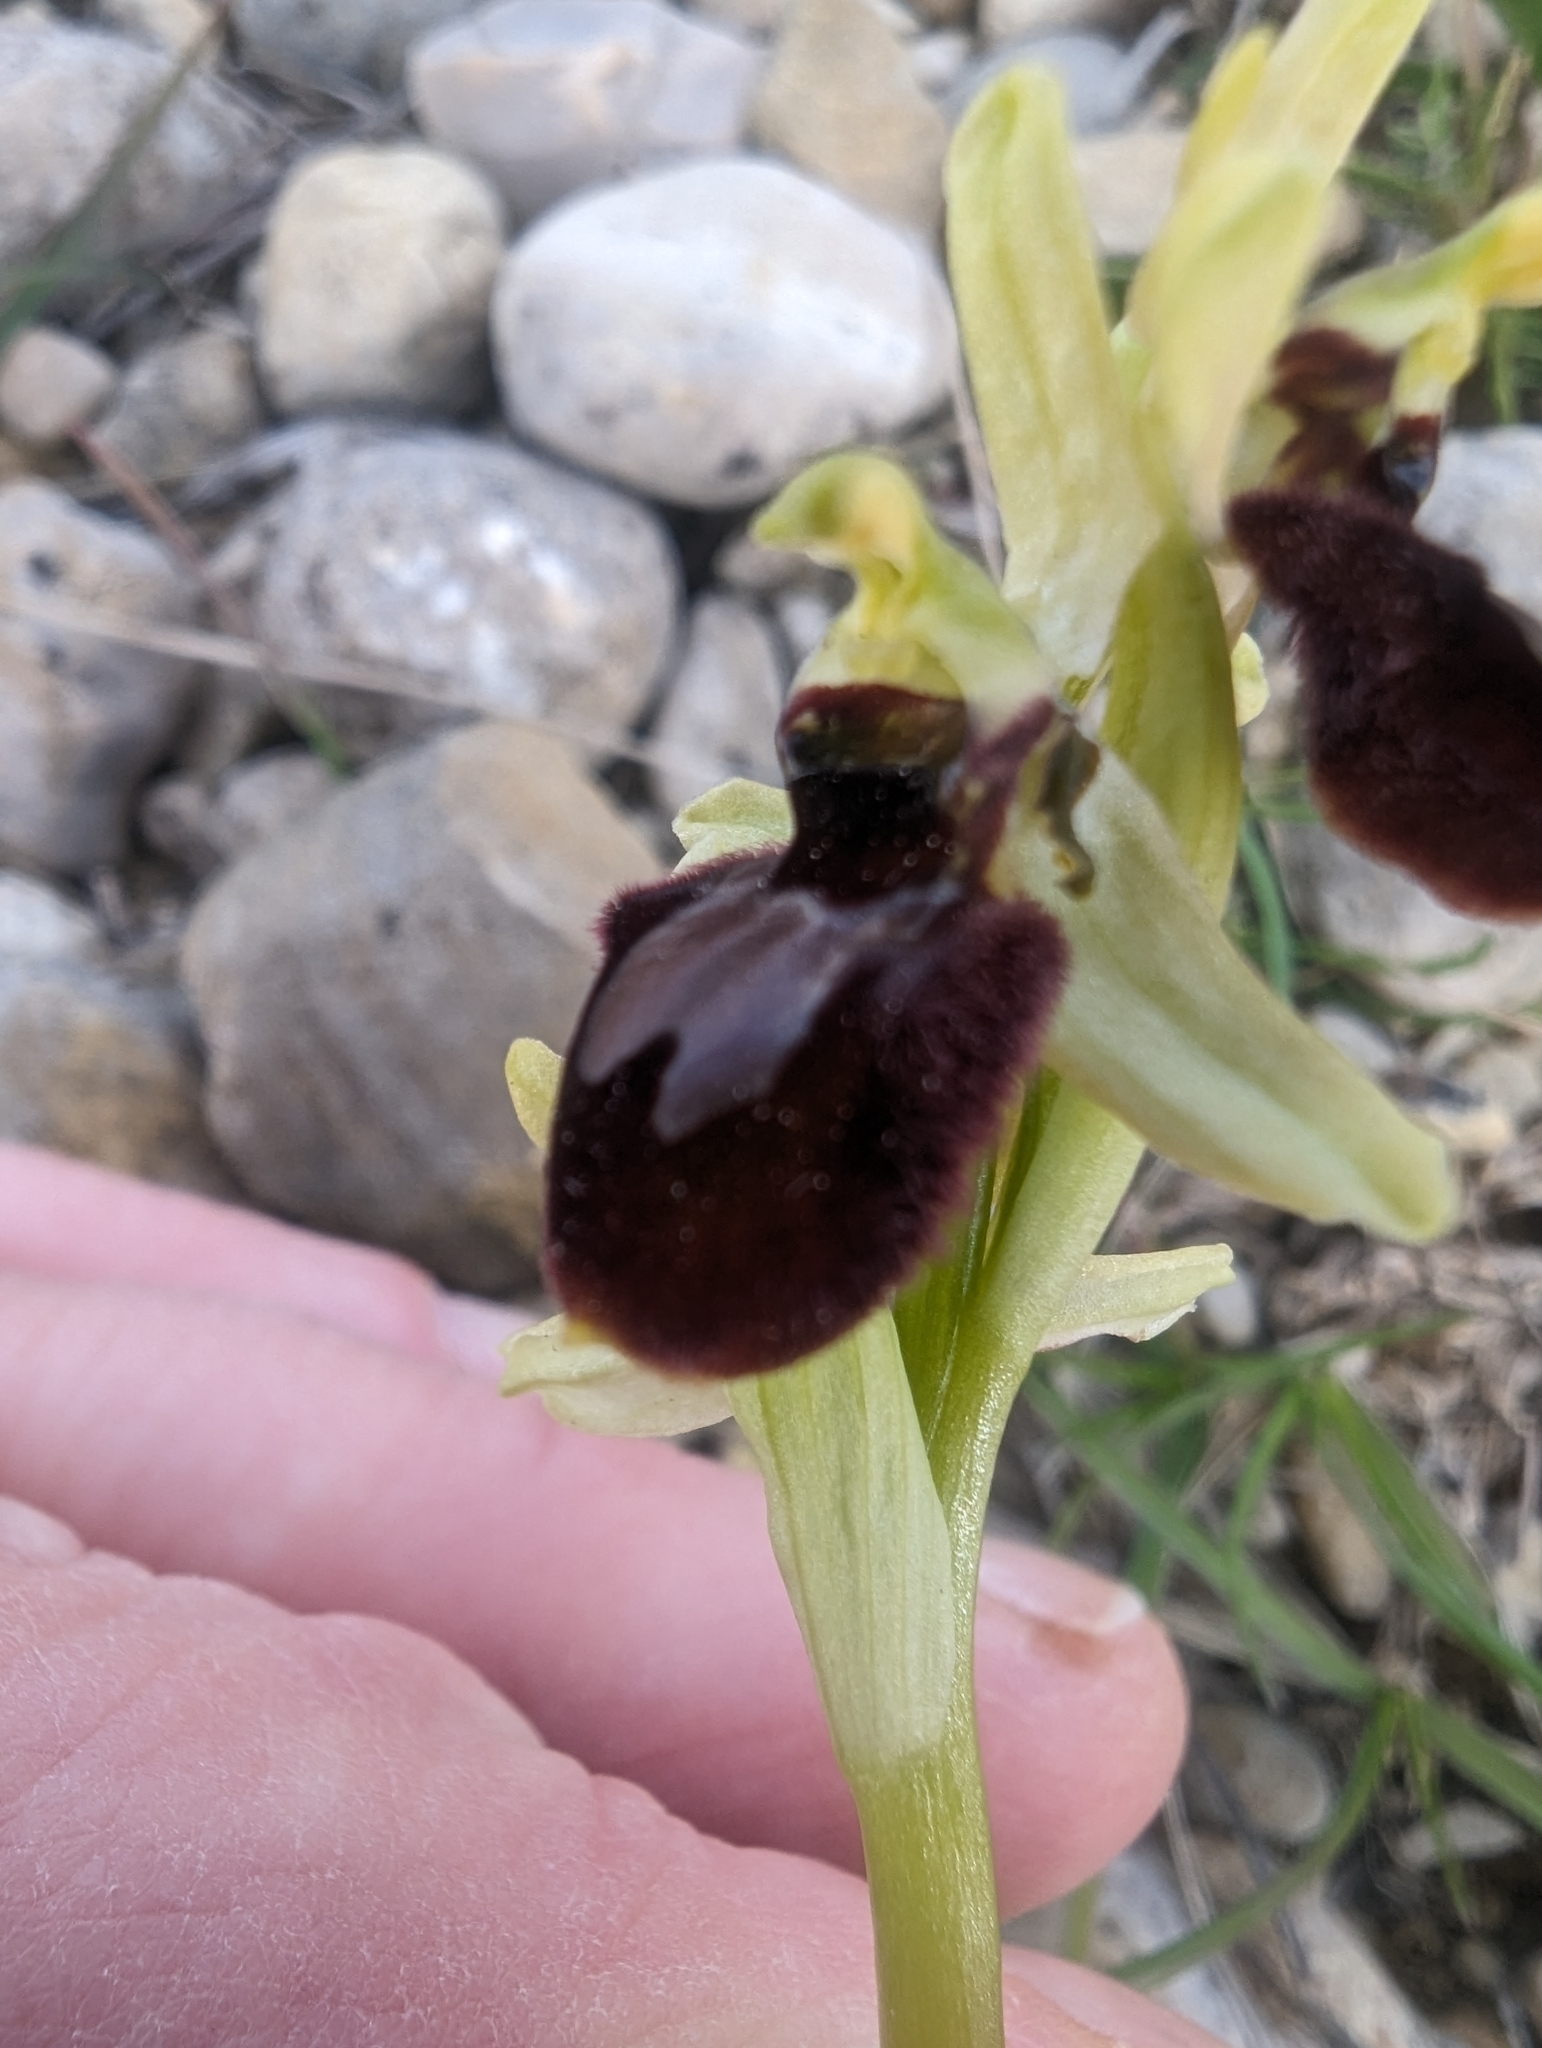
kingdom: Plantae
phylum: Tracheophyta
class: Liliopsida
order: Asparagales
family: Orchidaceae
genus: Ophrys
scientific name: Ophrys arachnitiformis
